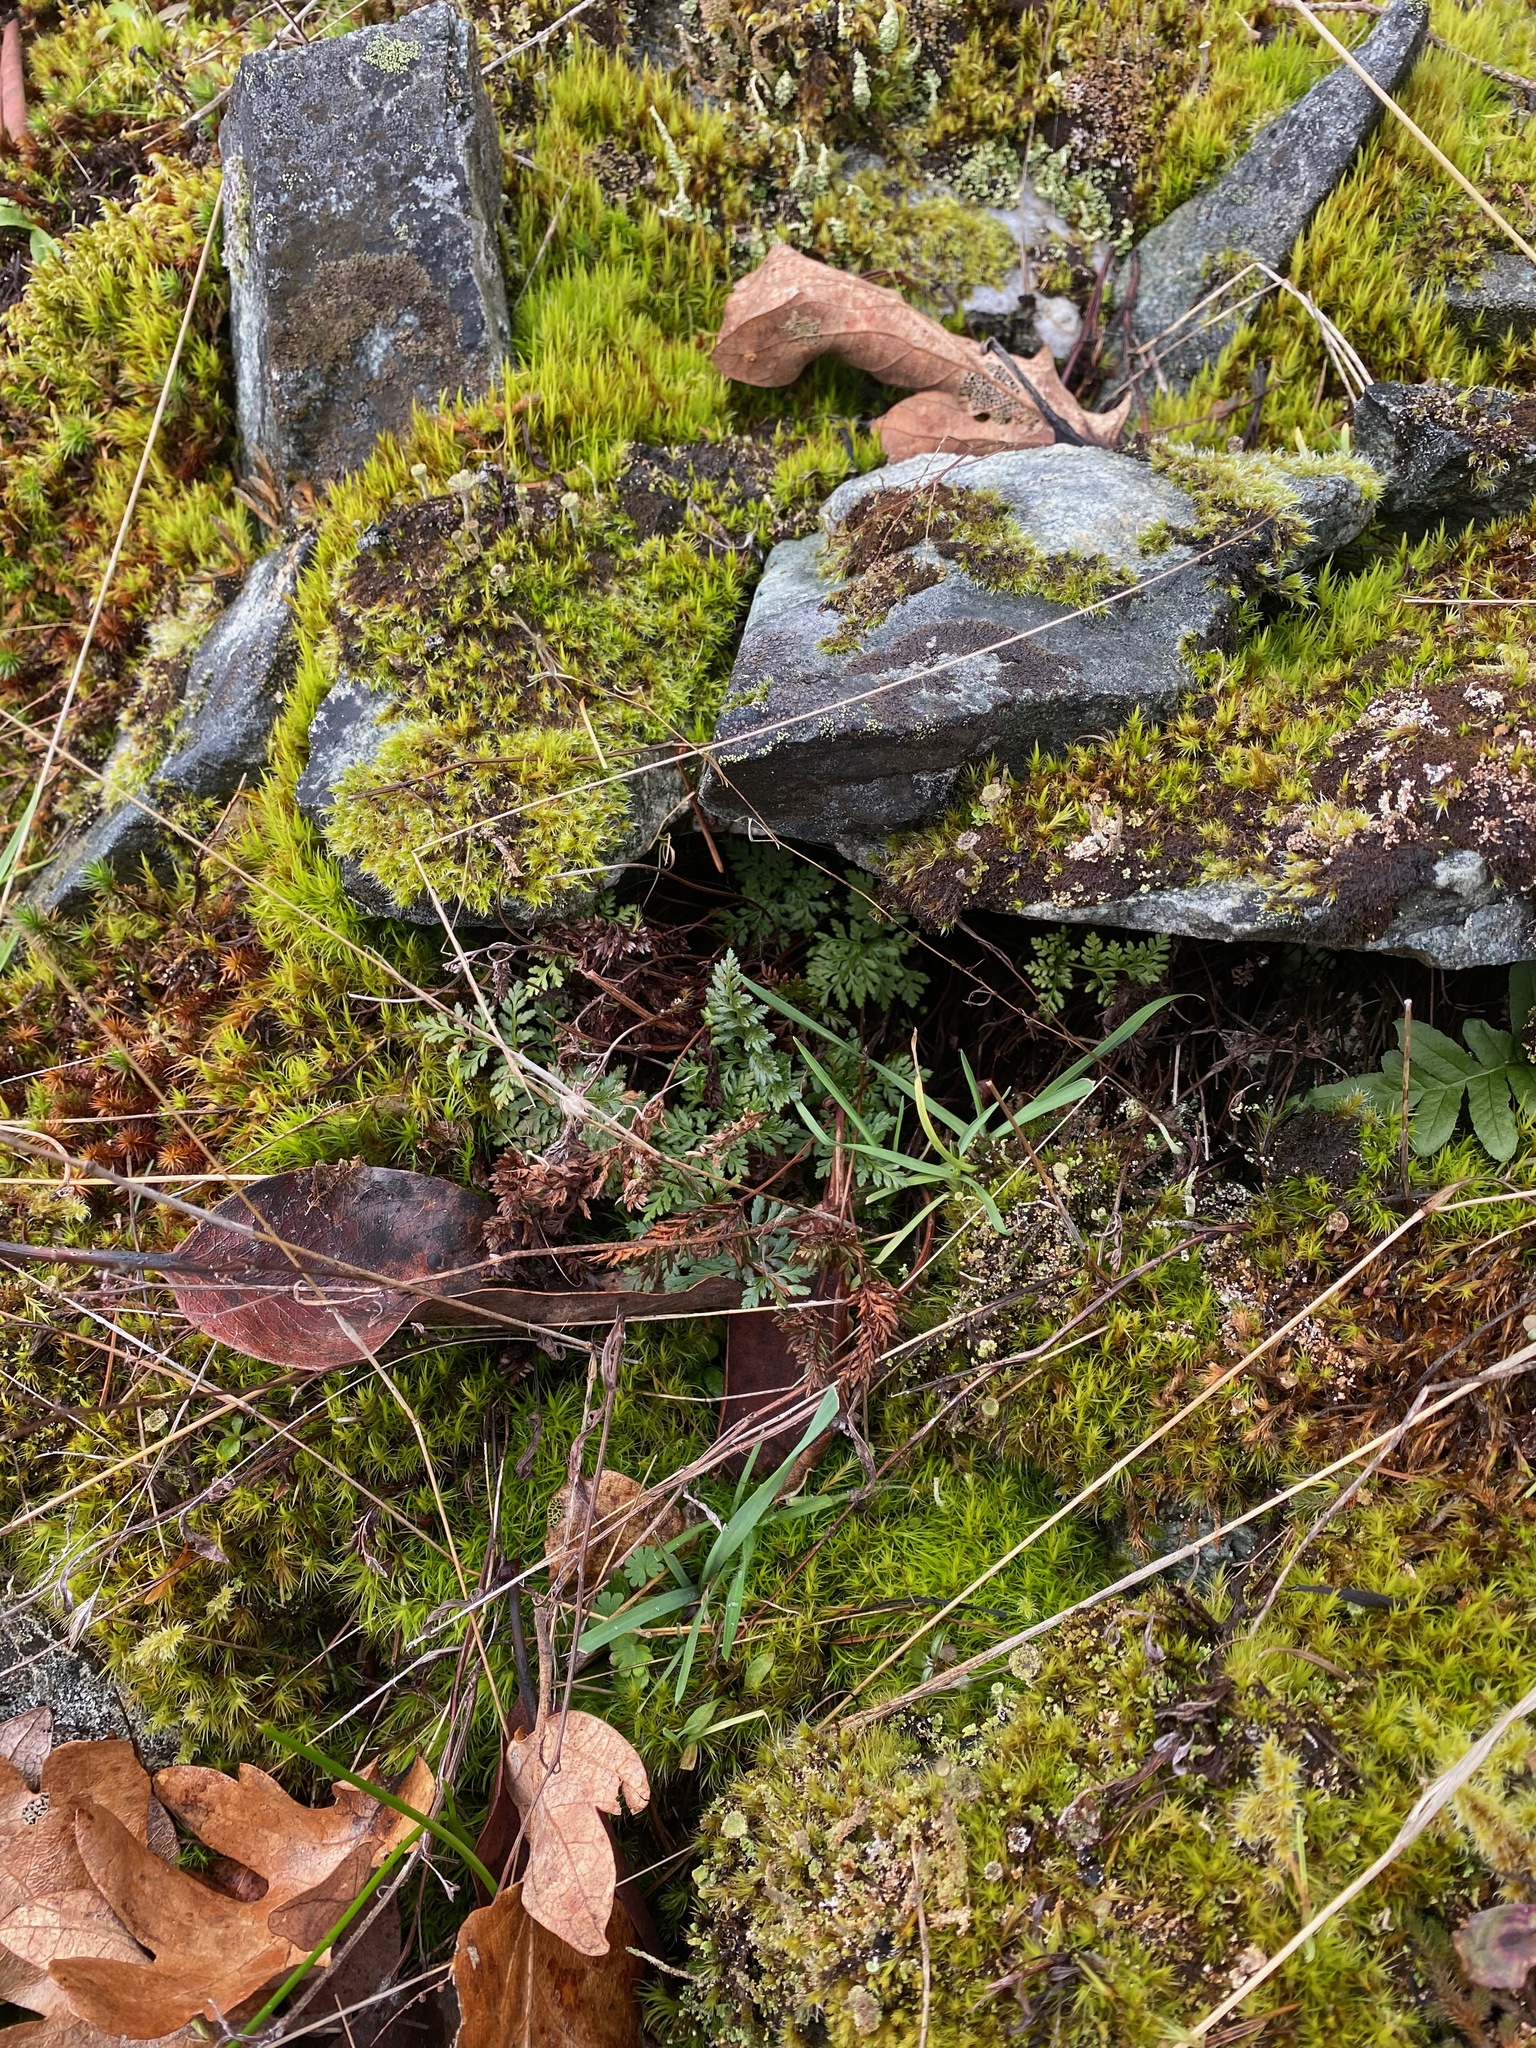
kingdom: Plantae
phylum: Tracheophyta
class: Polypodiopsida
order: Polypodiales
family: Pteridaceae
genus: Aspidotis
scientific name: Aspidotis densa
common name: Indian's dream
